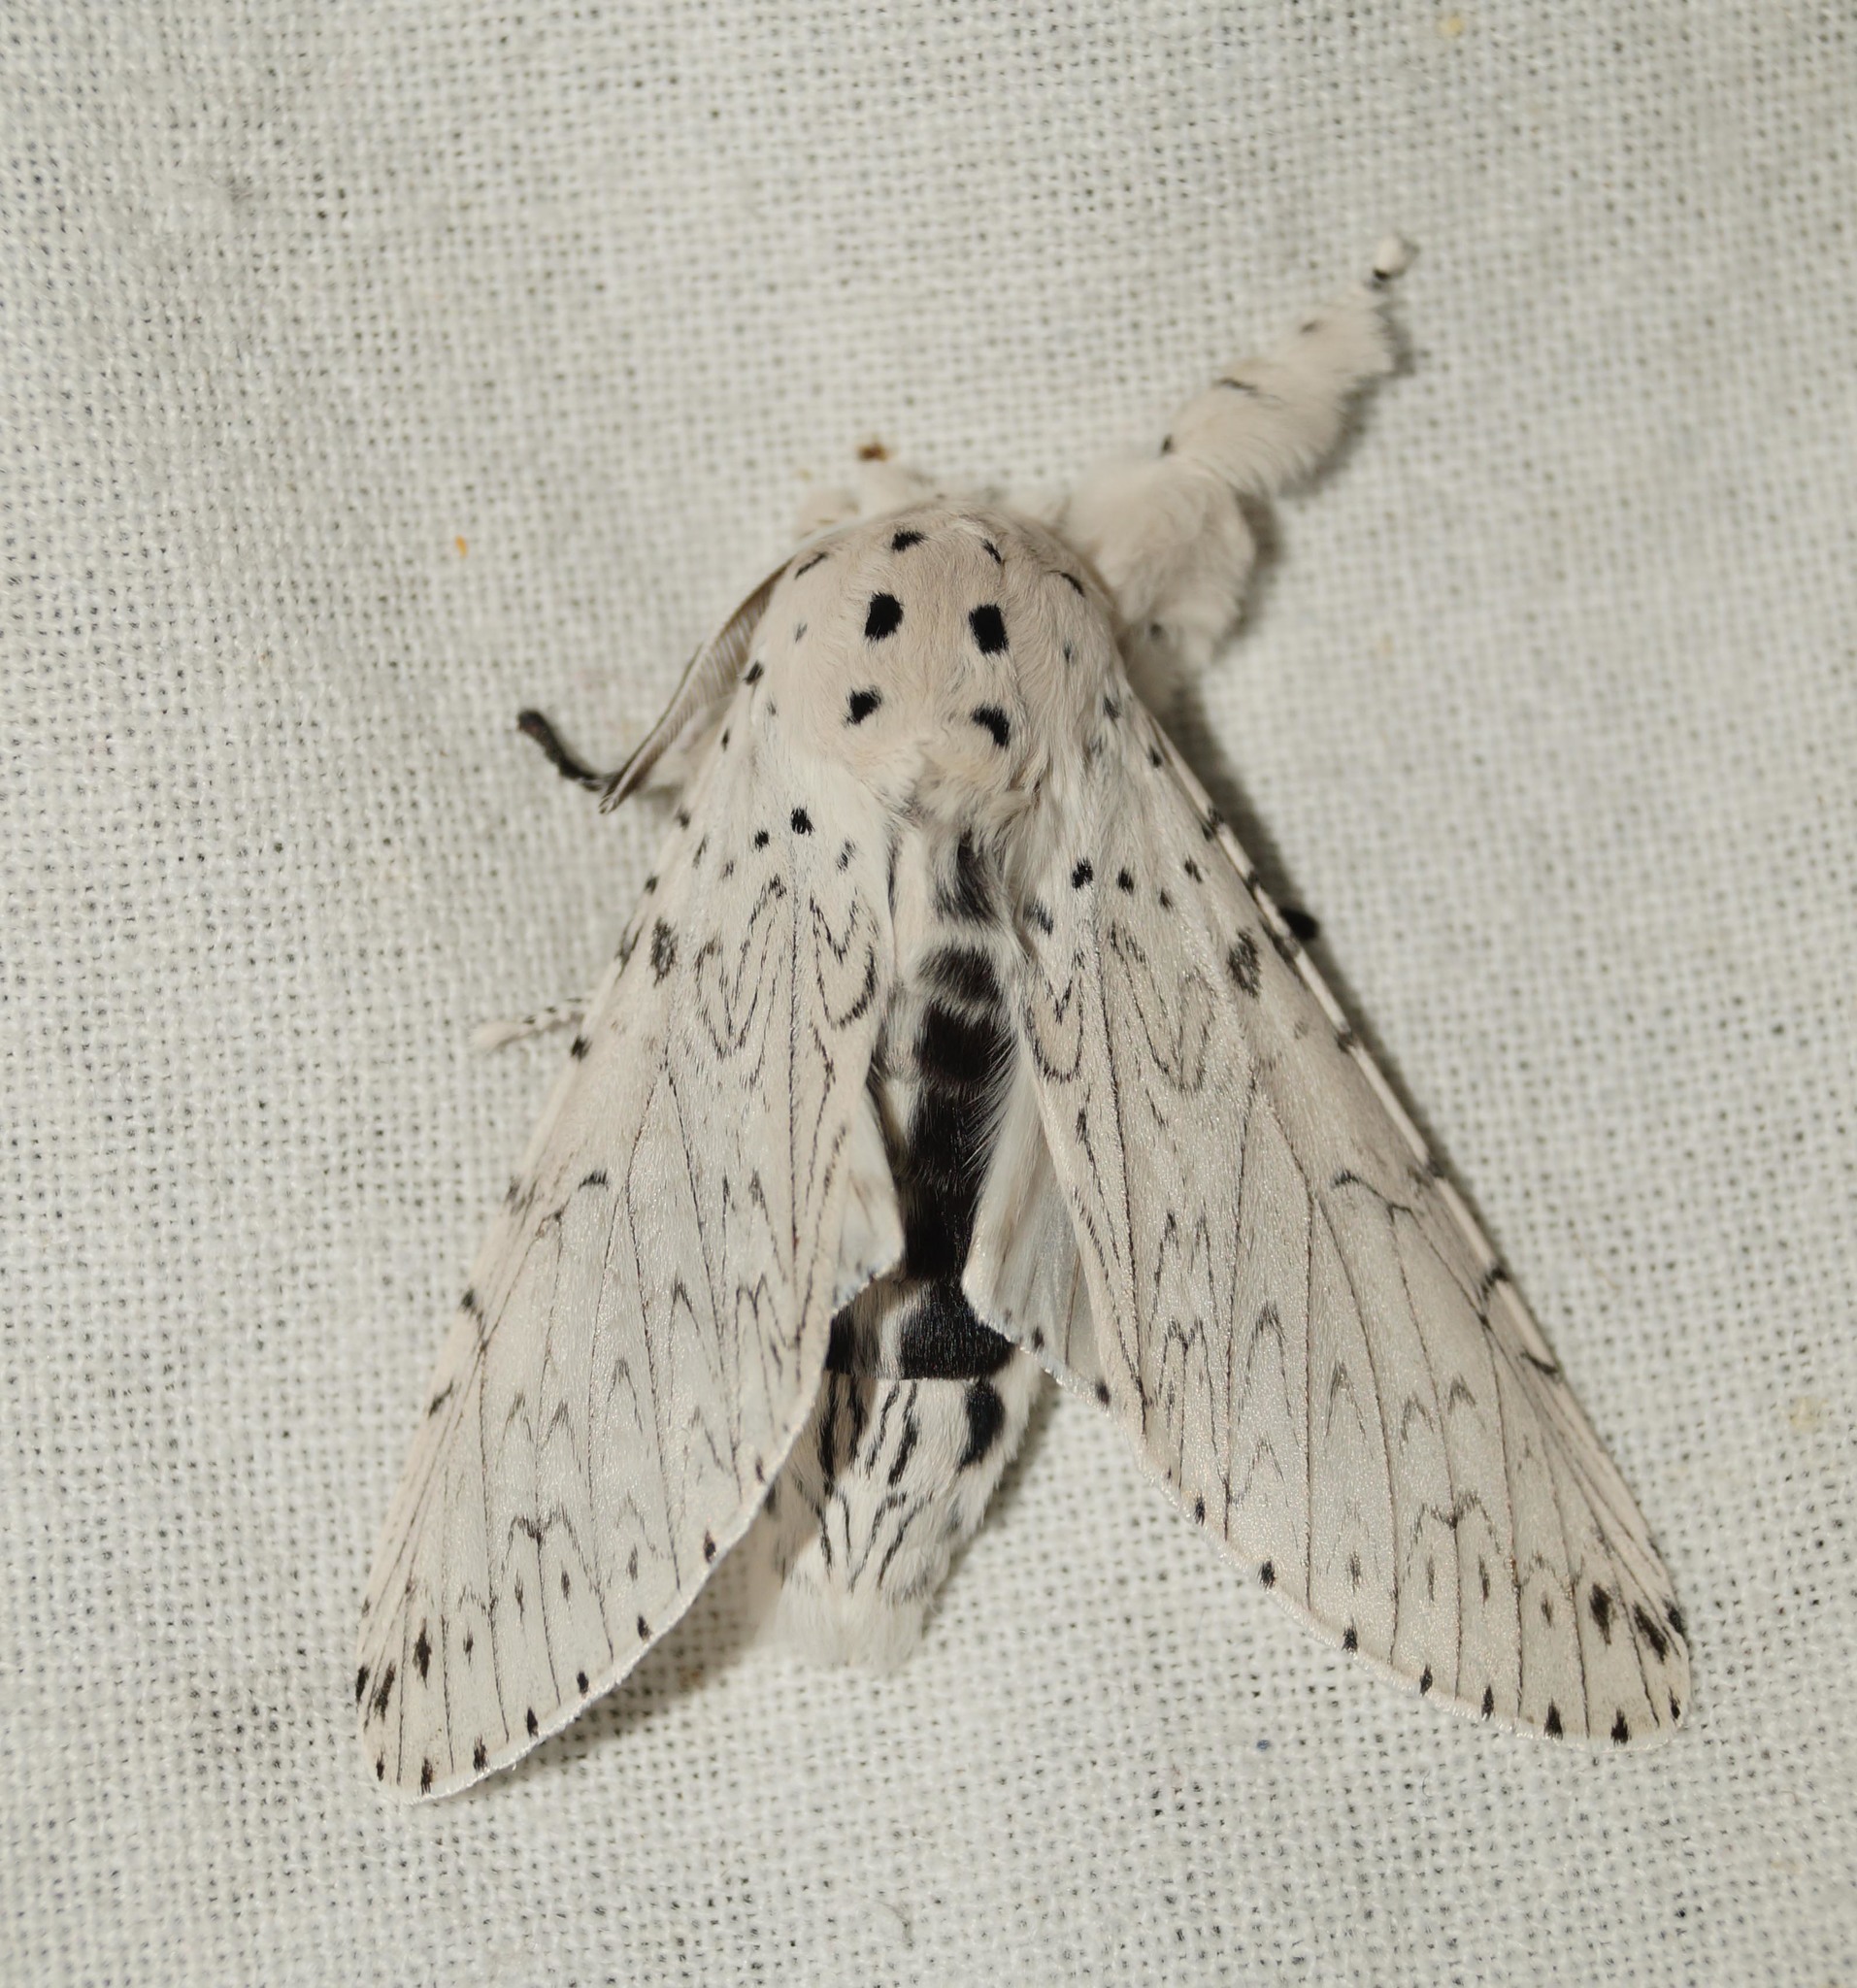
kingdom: Animalia
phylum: Arthropoda
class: Insecta
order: Lepidoptera
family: Notodontidae
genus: Cerura
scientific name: Cerura erminea
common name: Lesser puss moth
